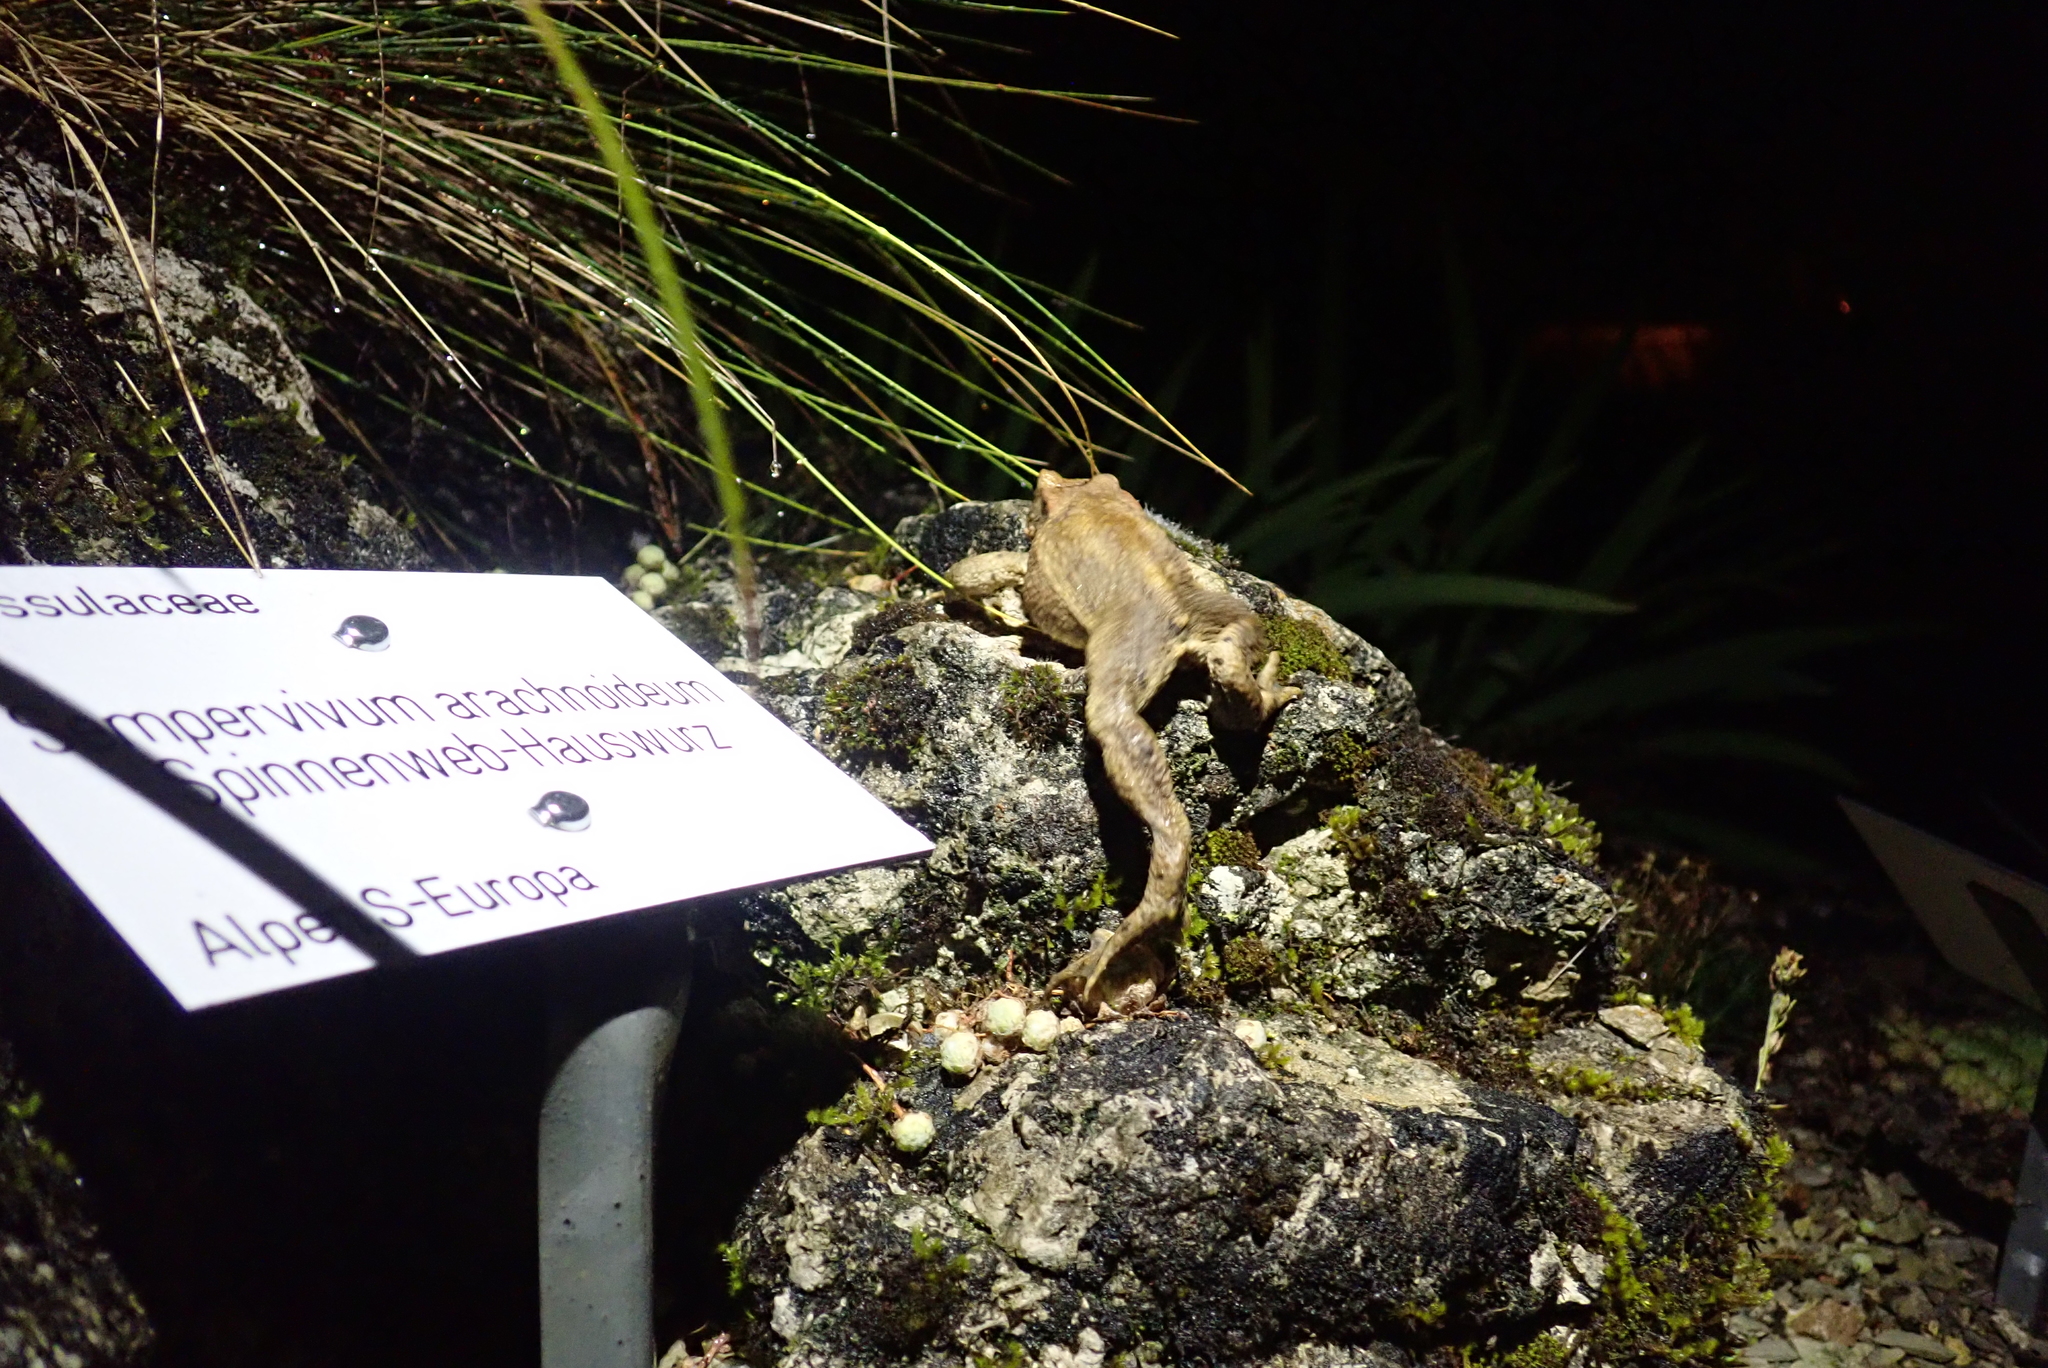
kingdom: Animalia
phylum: Chordata
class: Amphibia
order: Anura
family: Bufonidae
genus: Bufo
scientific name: Bufo bufo
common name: Common toad
